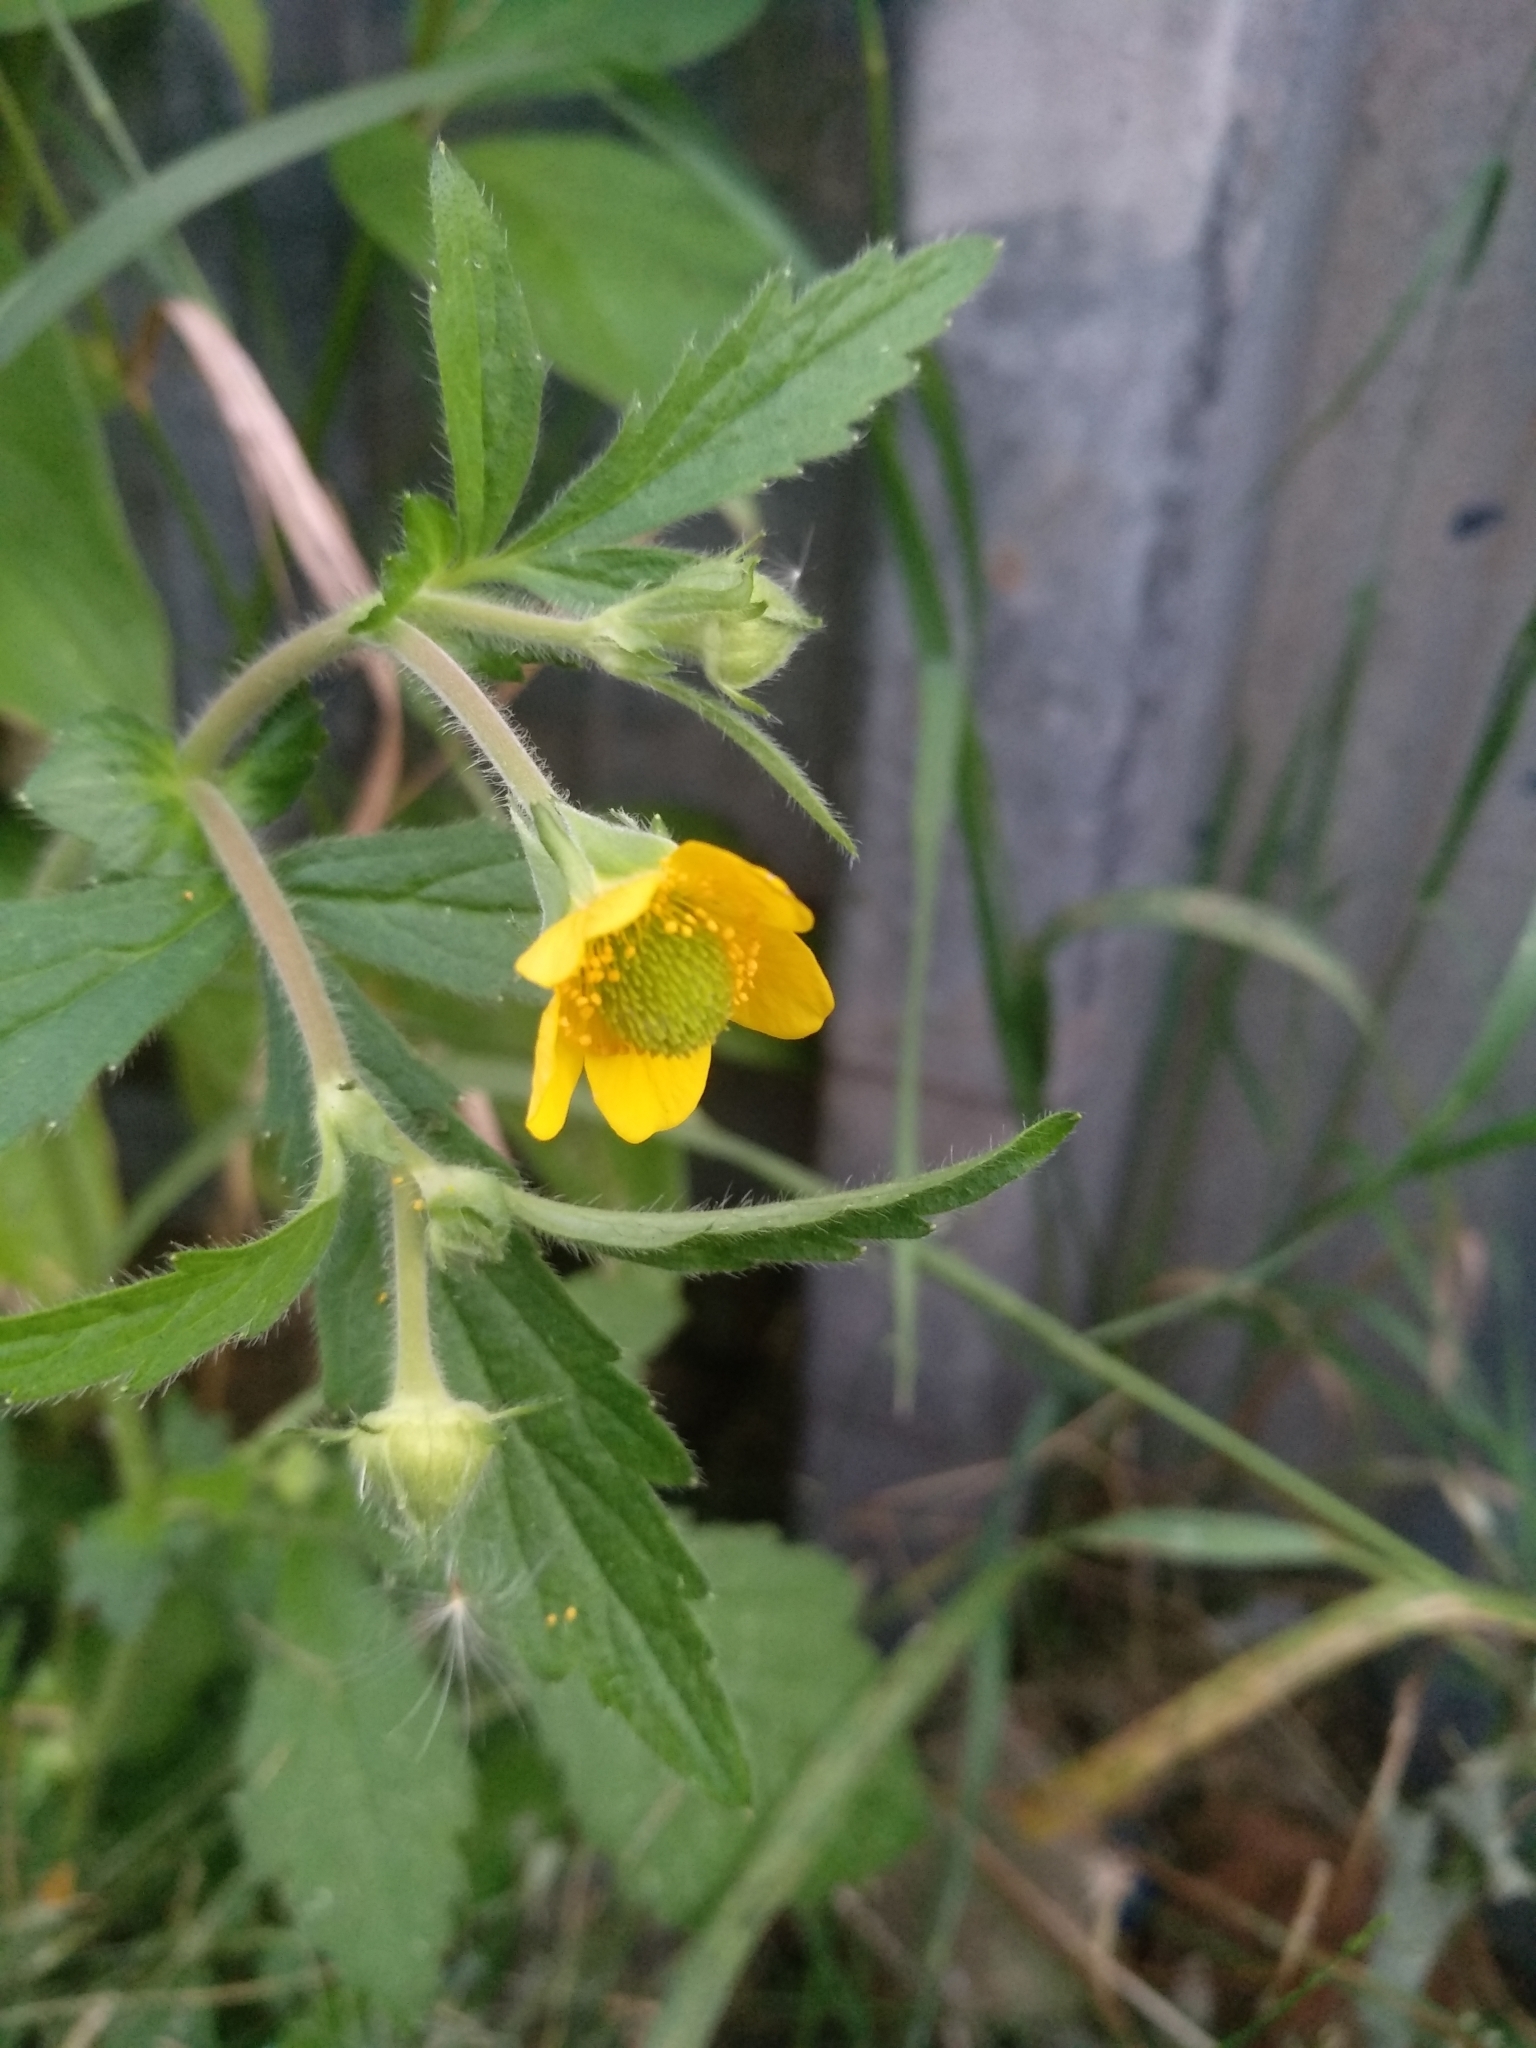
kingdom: Plantae
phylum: Tracheophyta
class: Magnoliopsida
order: Rosales
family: Rosaceae
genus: Geum
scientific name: Geum aleppicum
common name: Yellow avens
